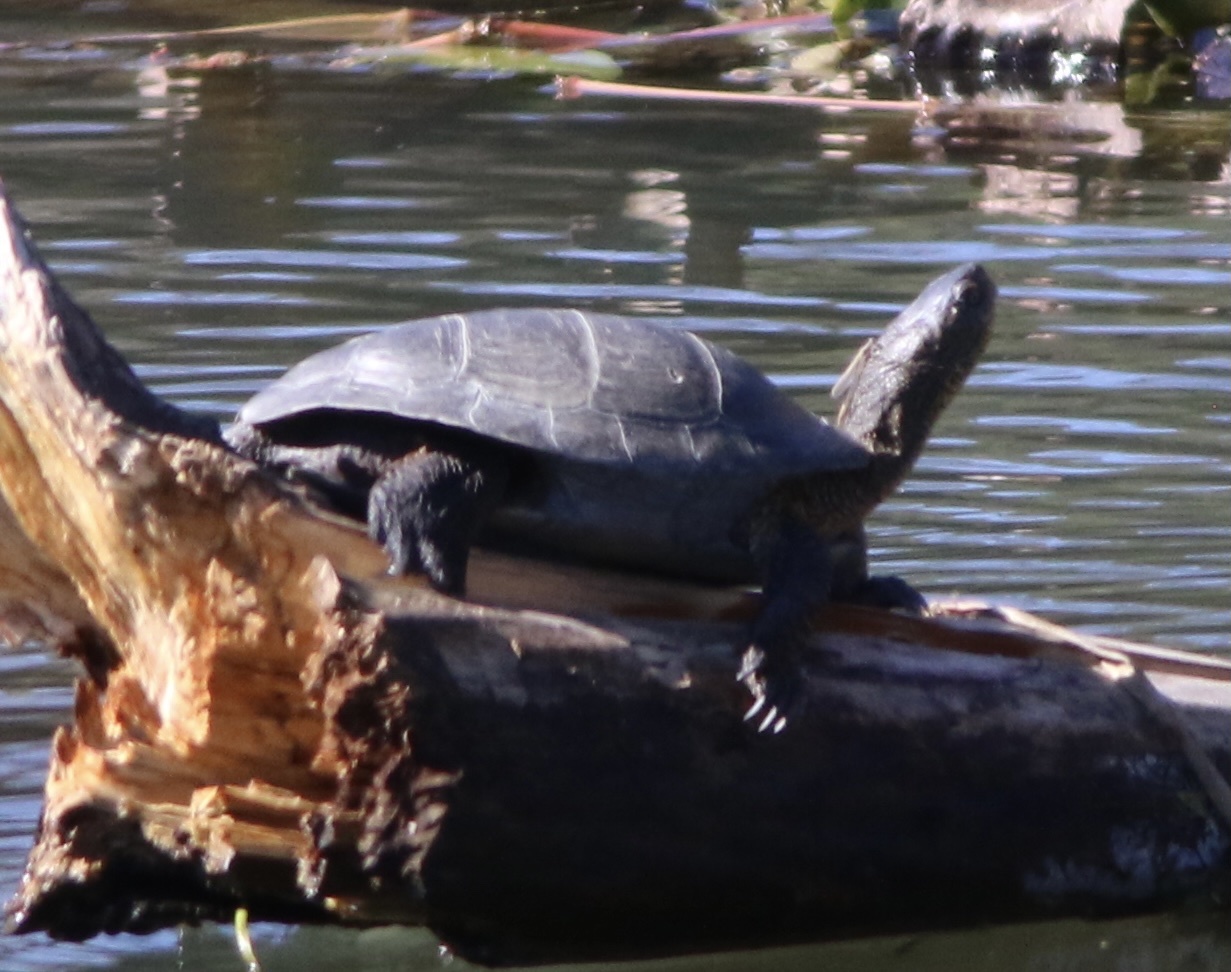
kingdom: Animalia
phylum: Chordata
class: Testudines
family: Emydidae
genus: Actinemys
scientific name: Actinemys marmorata
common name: Western pond turtle
